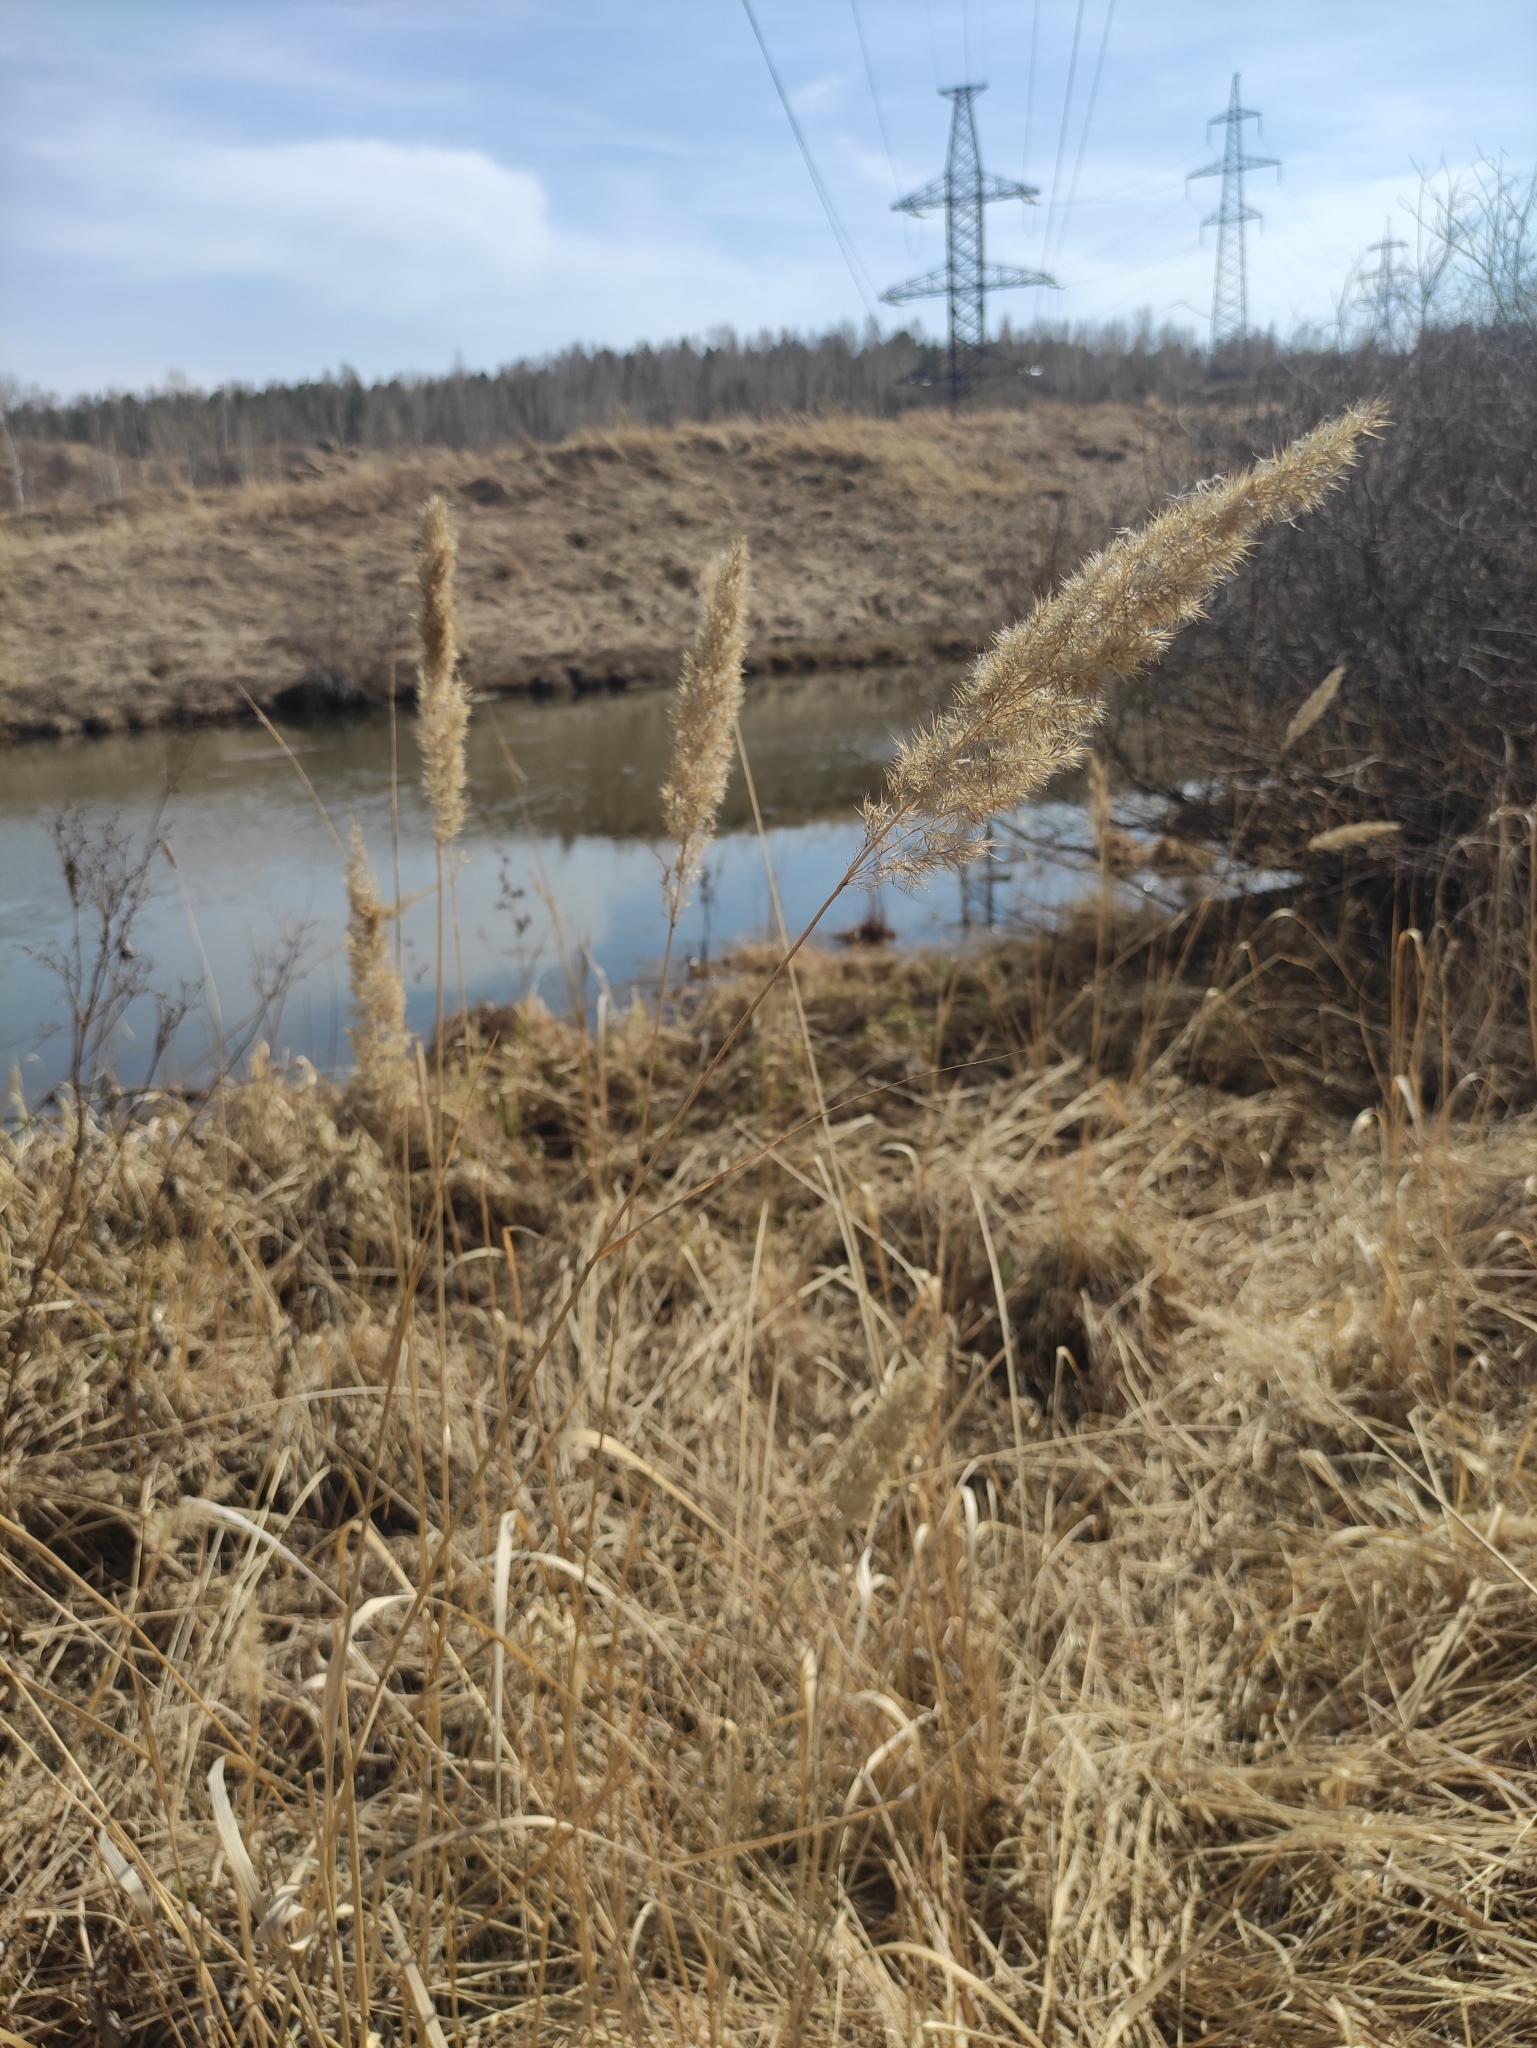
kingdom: Plantae
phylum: Tracheophyta
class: Liliopsida
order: Poales
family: Poaceae
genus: Calamagrostis
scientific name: Calamagrostis epigejos
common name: Wood small-reed
